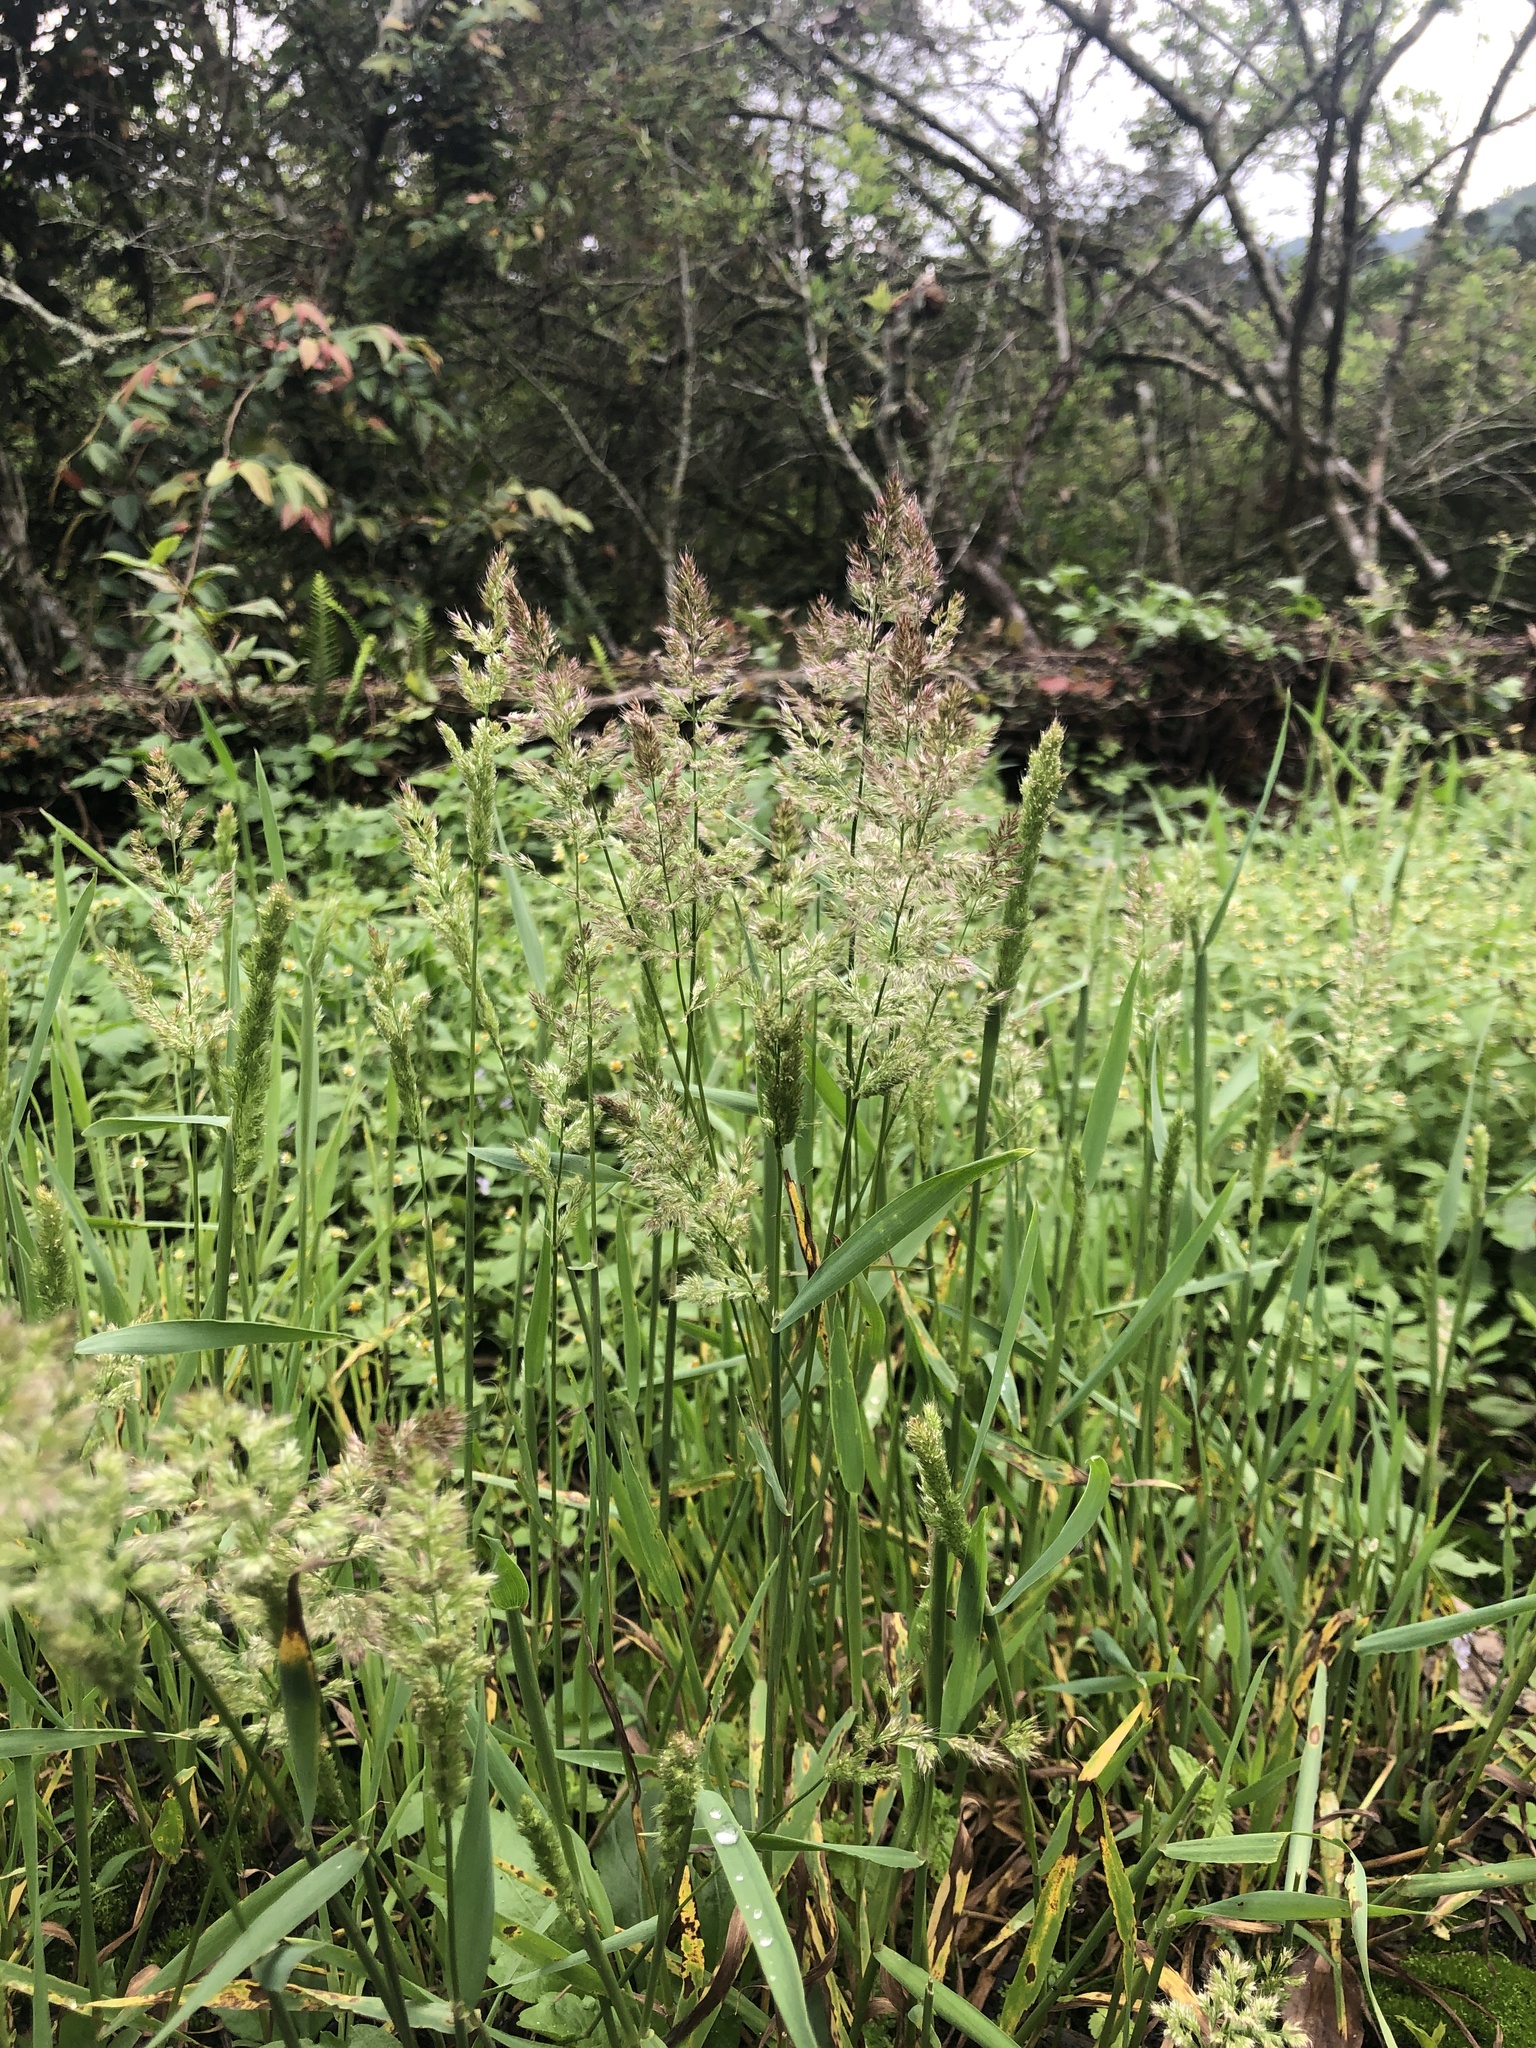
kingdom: Plantae
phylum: Tracheophyta
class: Liliopsida
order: Poales
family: Poaceae
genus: Polypogon
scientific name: Polypogon fugax
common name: Asia minor bluegrass
